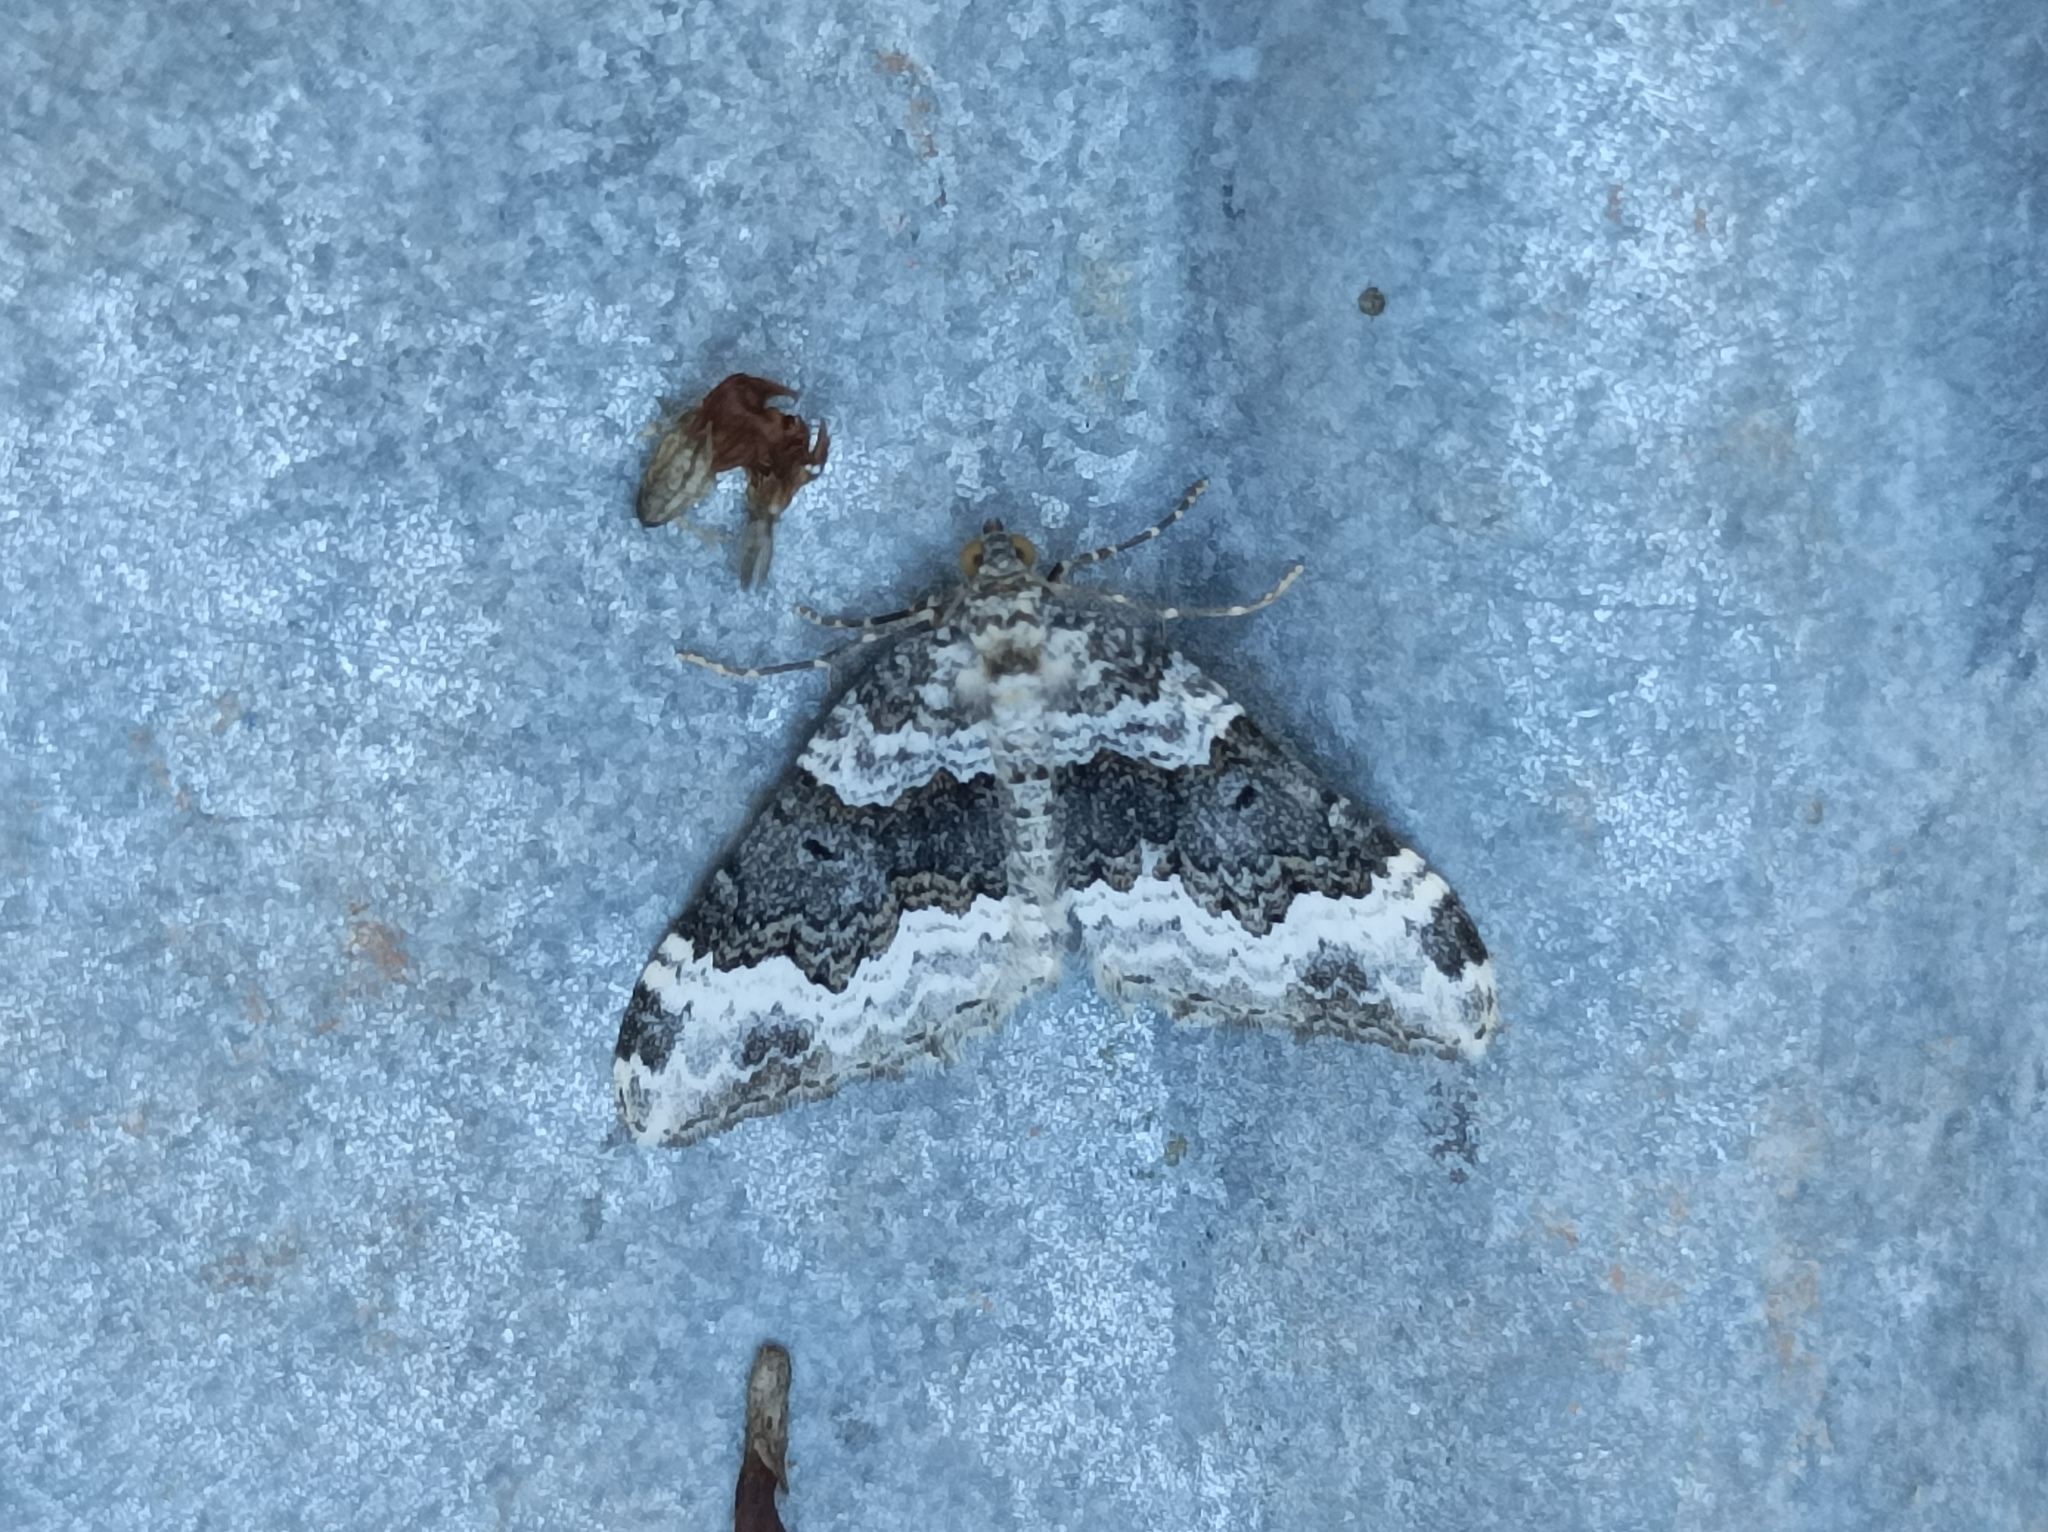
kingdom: Animalia
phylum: Arthropoda
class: Insecta
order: Lepidoptera
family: Geometridae
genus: Epirrhoe
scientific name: Epirrhoe galiata
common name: Galium carpet
